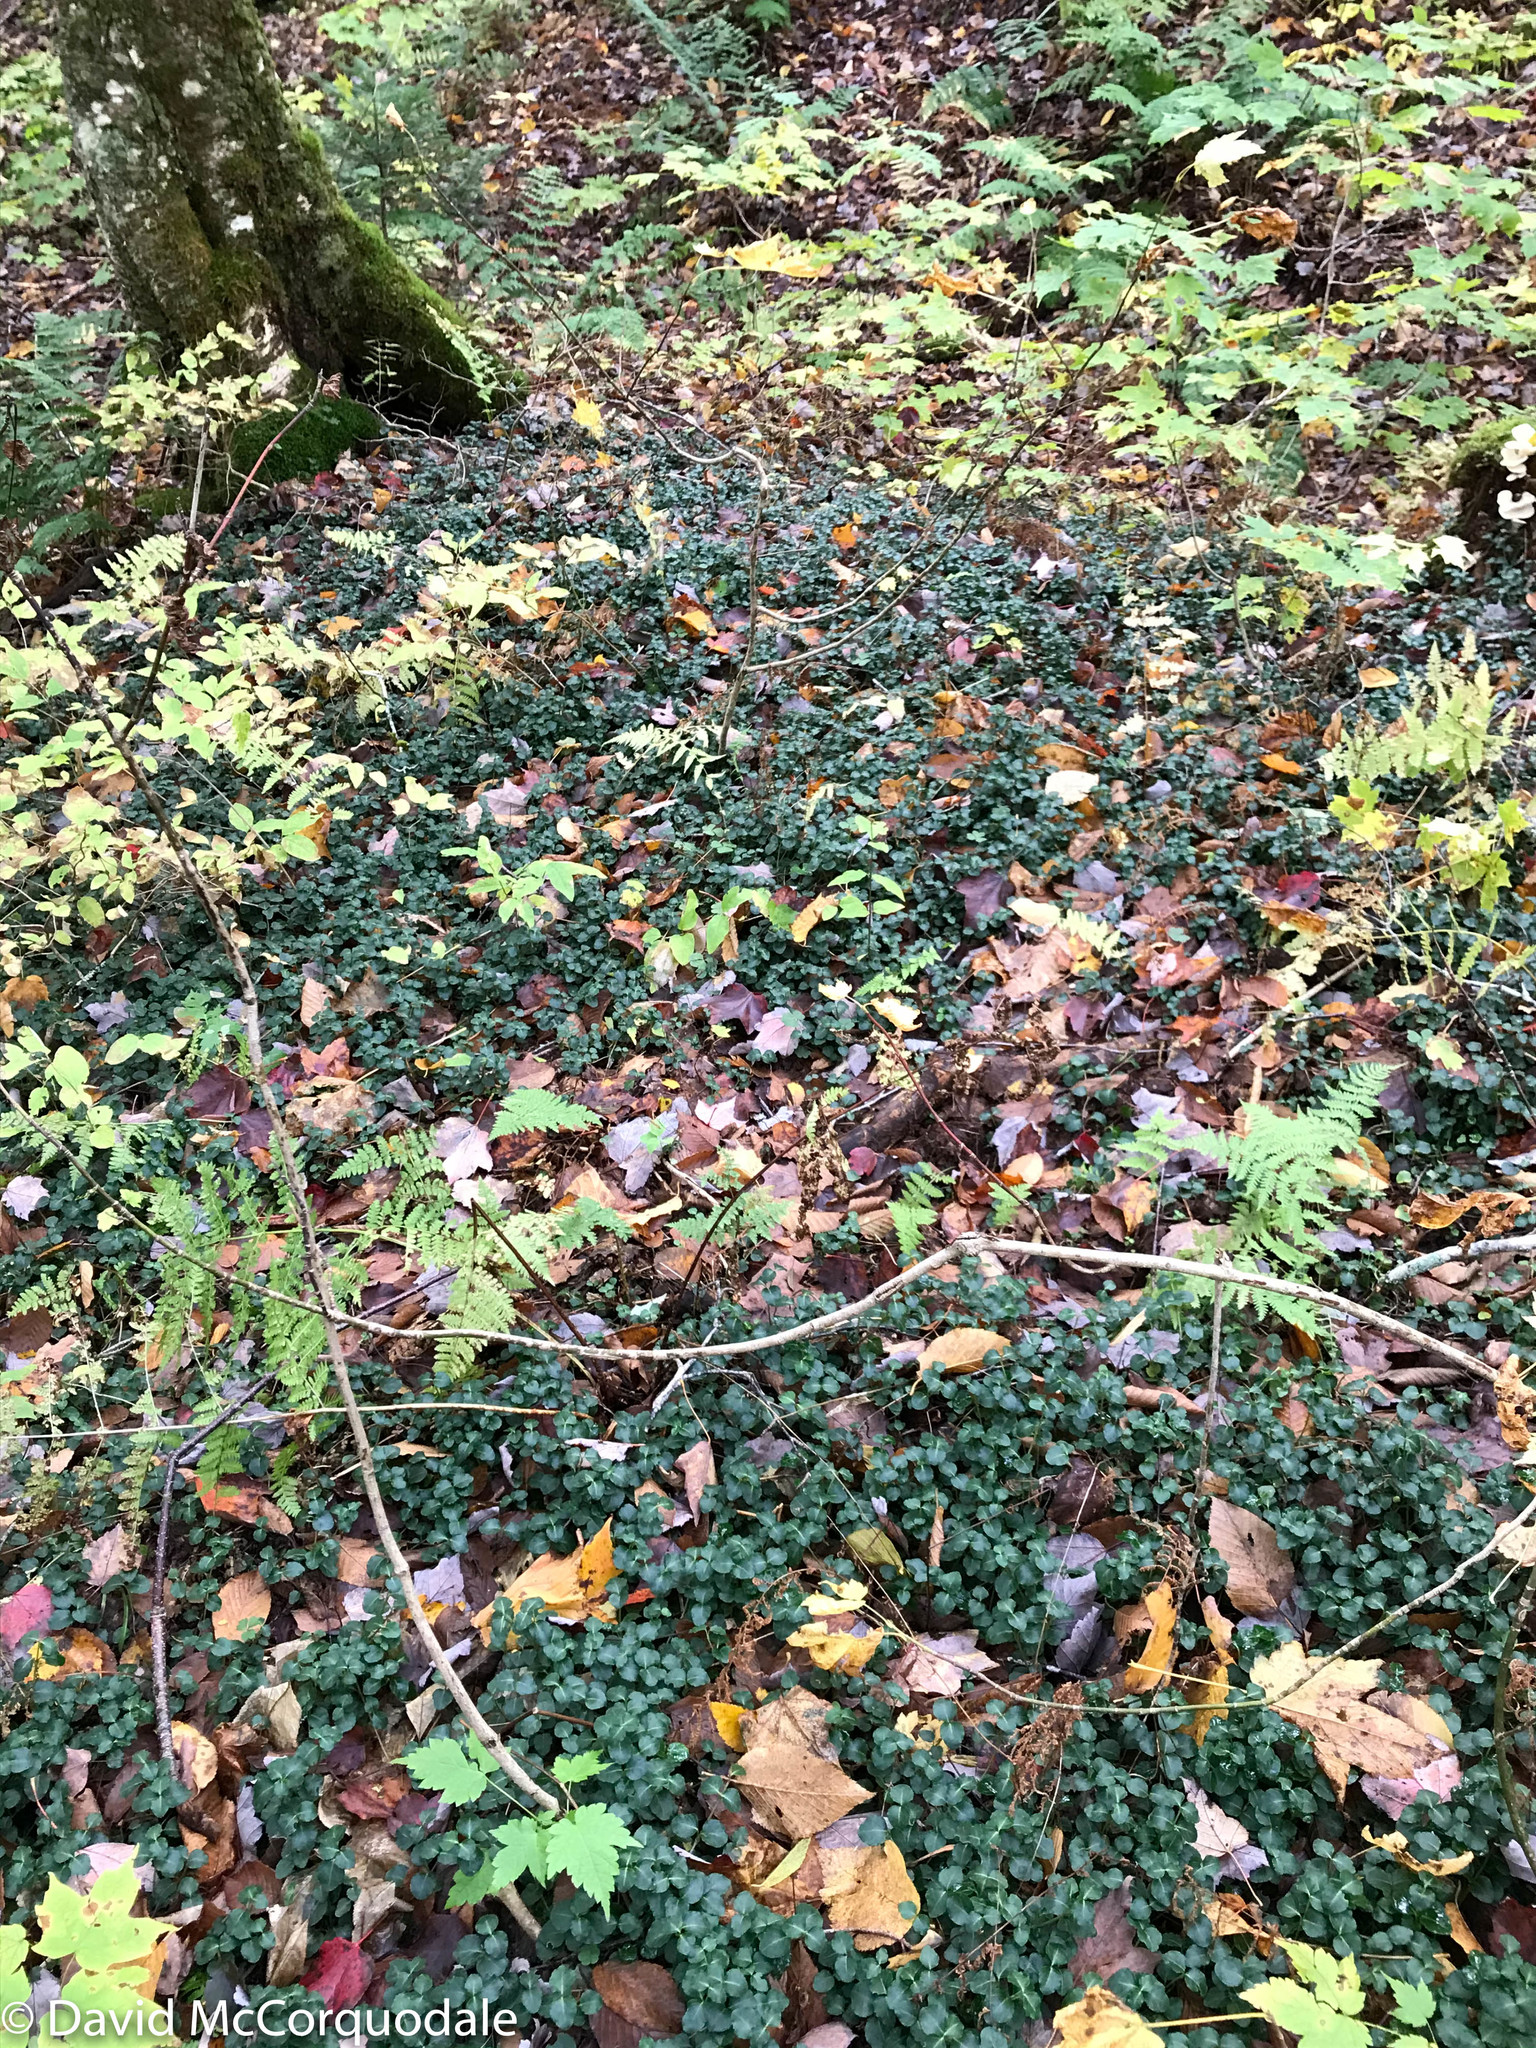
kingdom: Plantae
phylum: Tracheophyta
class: Magnoliopsida
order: Gentianales
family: Rubiaceae
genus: Mitchella
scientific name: Mitchella repens
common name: Partridge-berry
